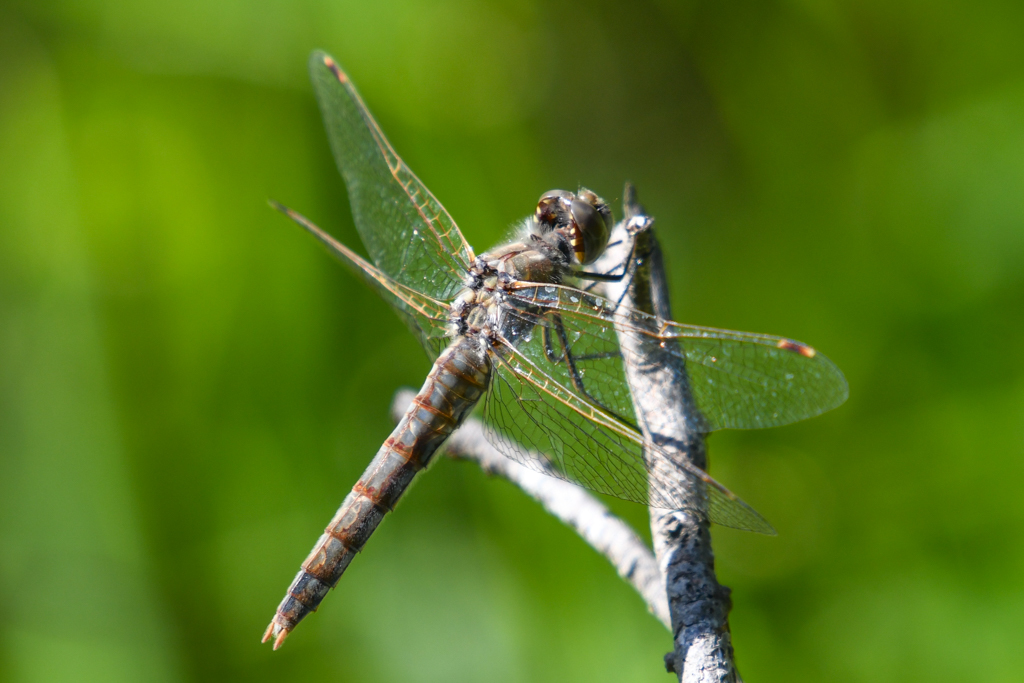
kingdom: Animalia
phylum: Arthropoda
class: Insecta
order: Odonata
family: Libellulidae
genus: Sympetrum
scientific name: Sympetrum corruptum
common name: Variegated meadowhawk
